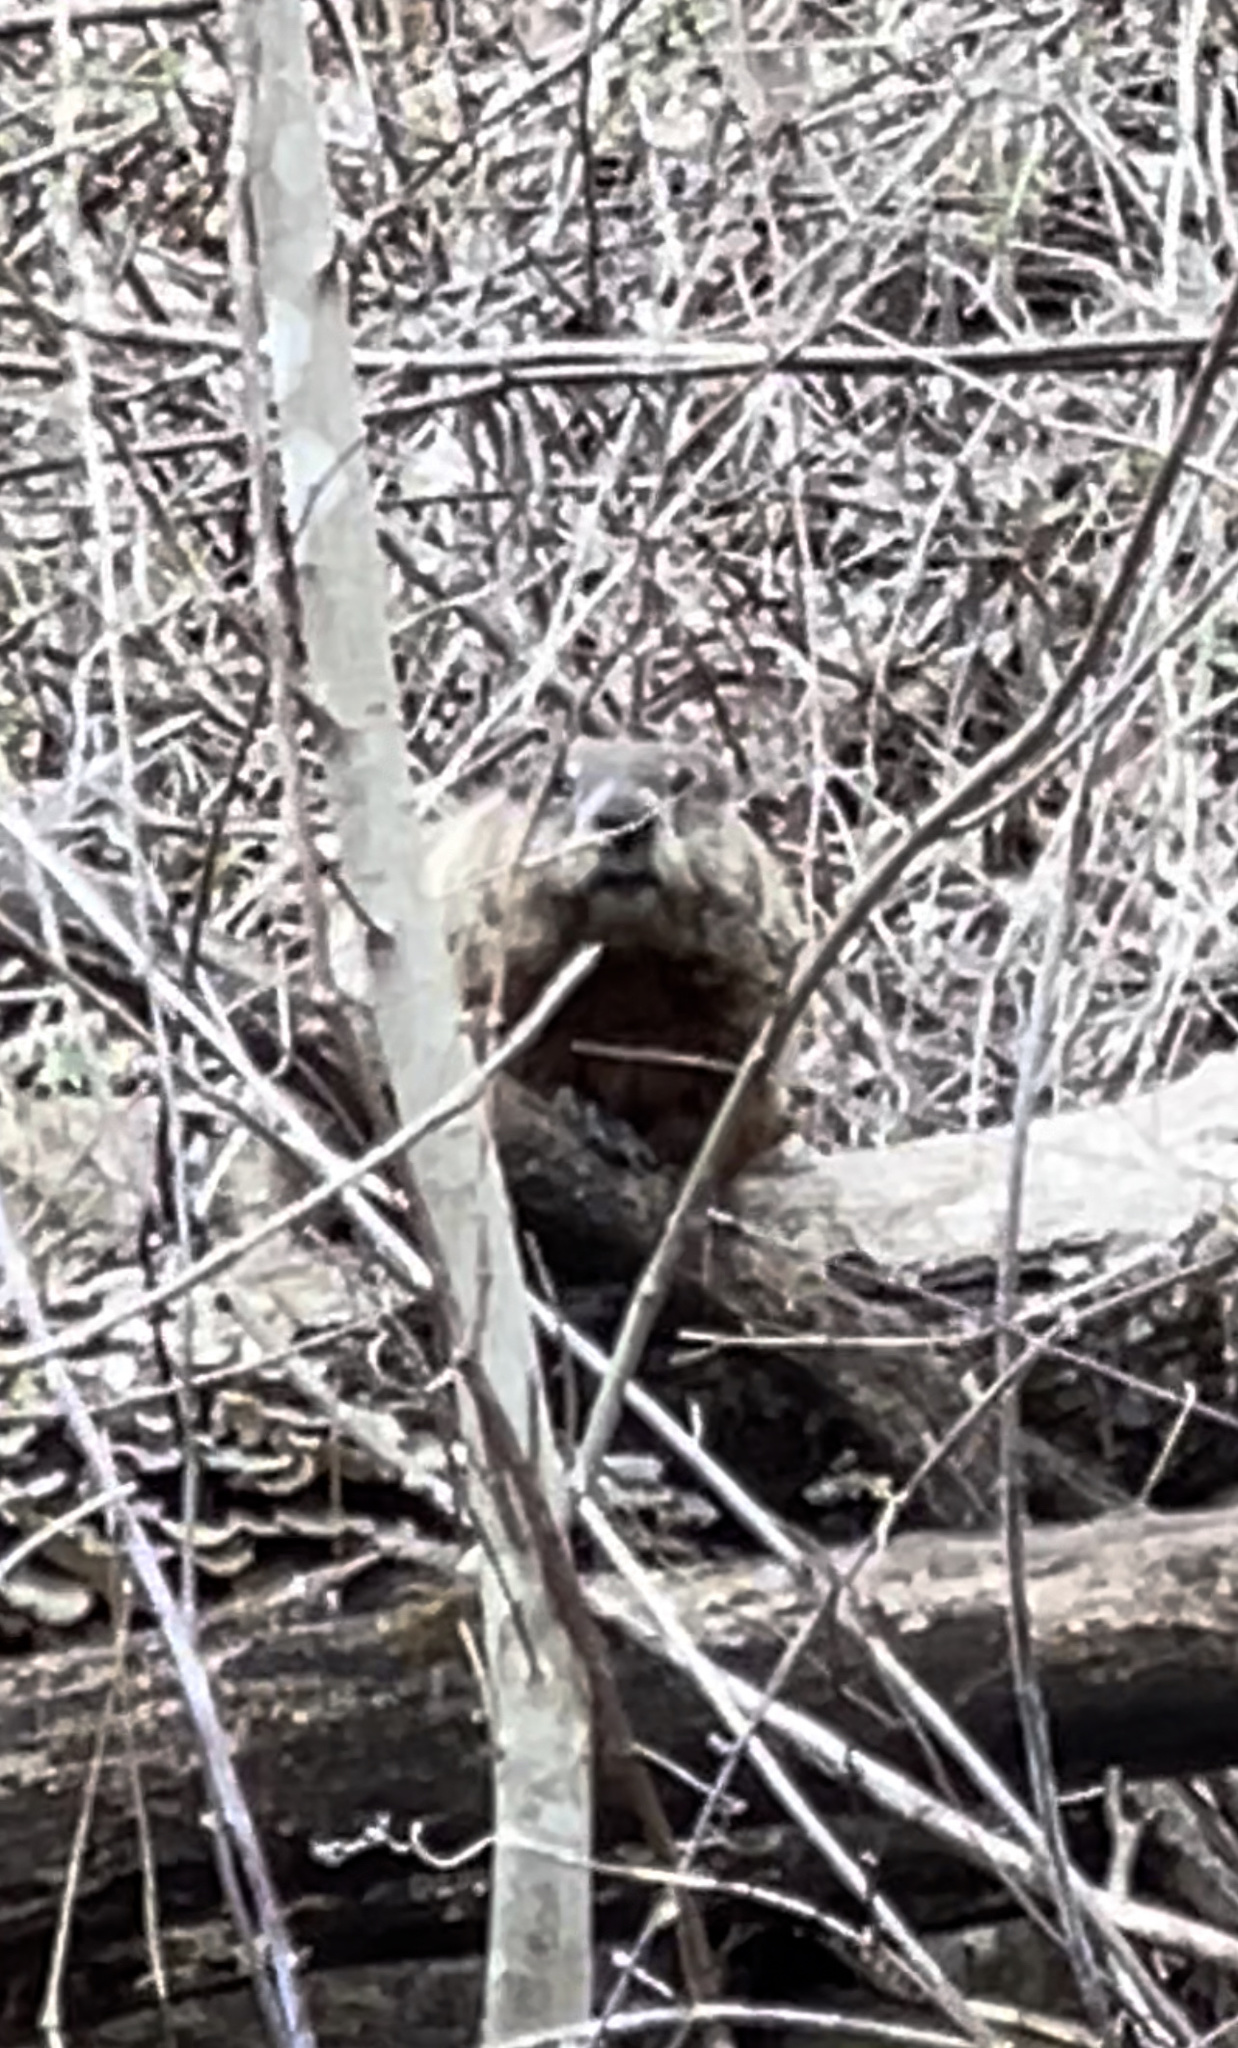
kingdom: Animalia
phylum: Chordata
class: Mammalia
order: Rodentia
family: Sciuridae
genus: Marmota
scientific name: Marmota monax
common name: Groundhog
